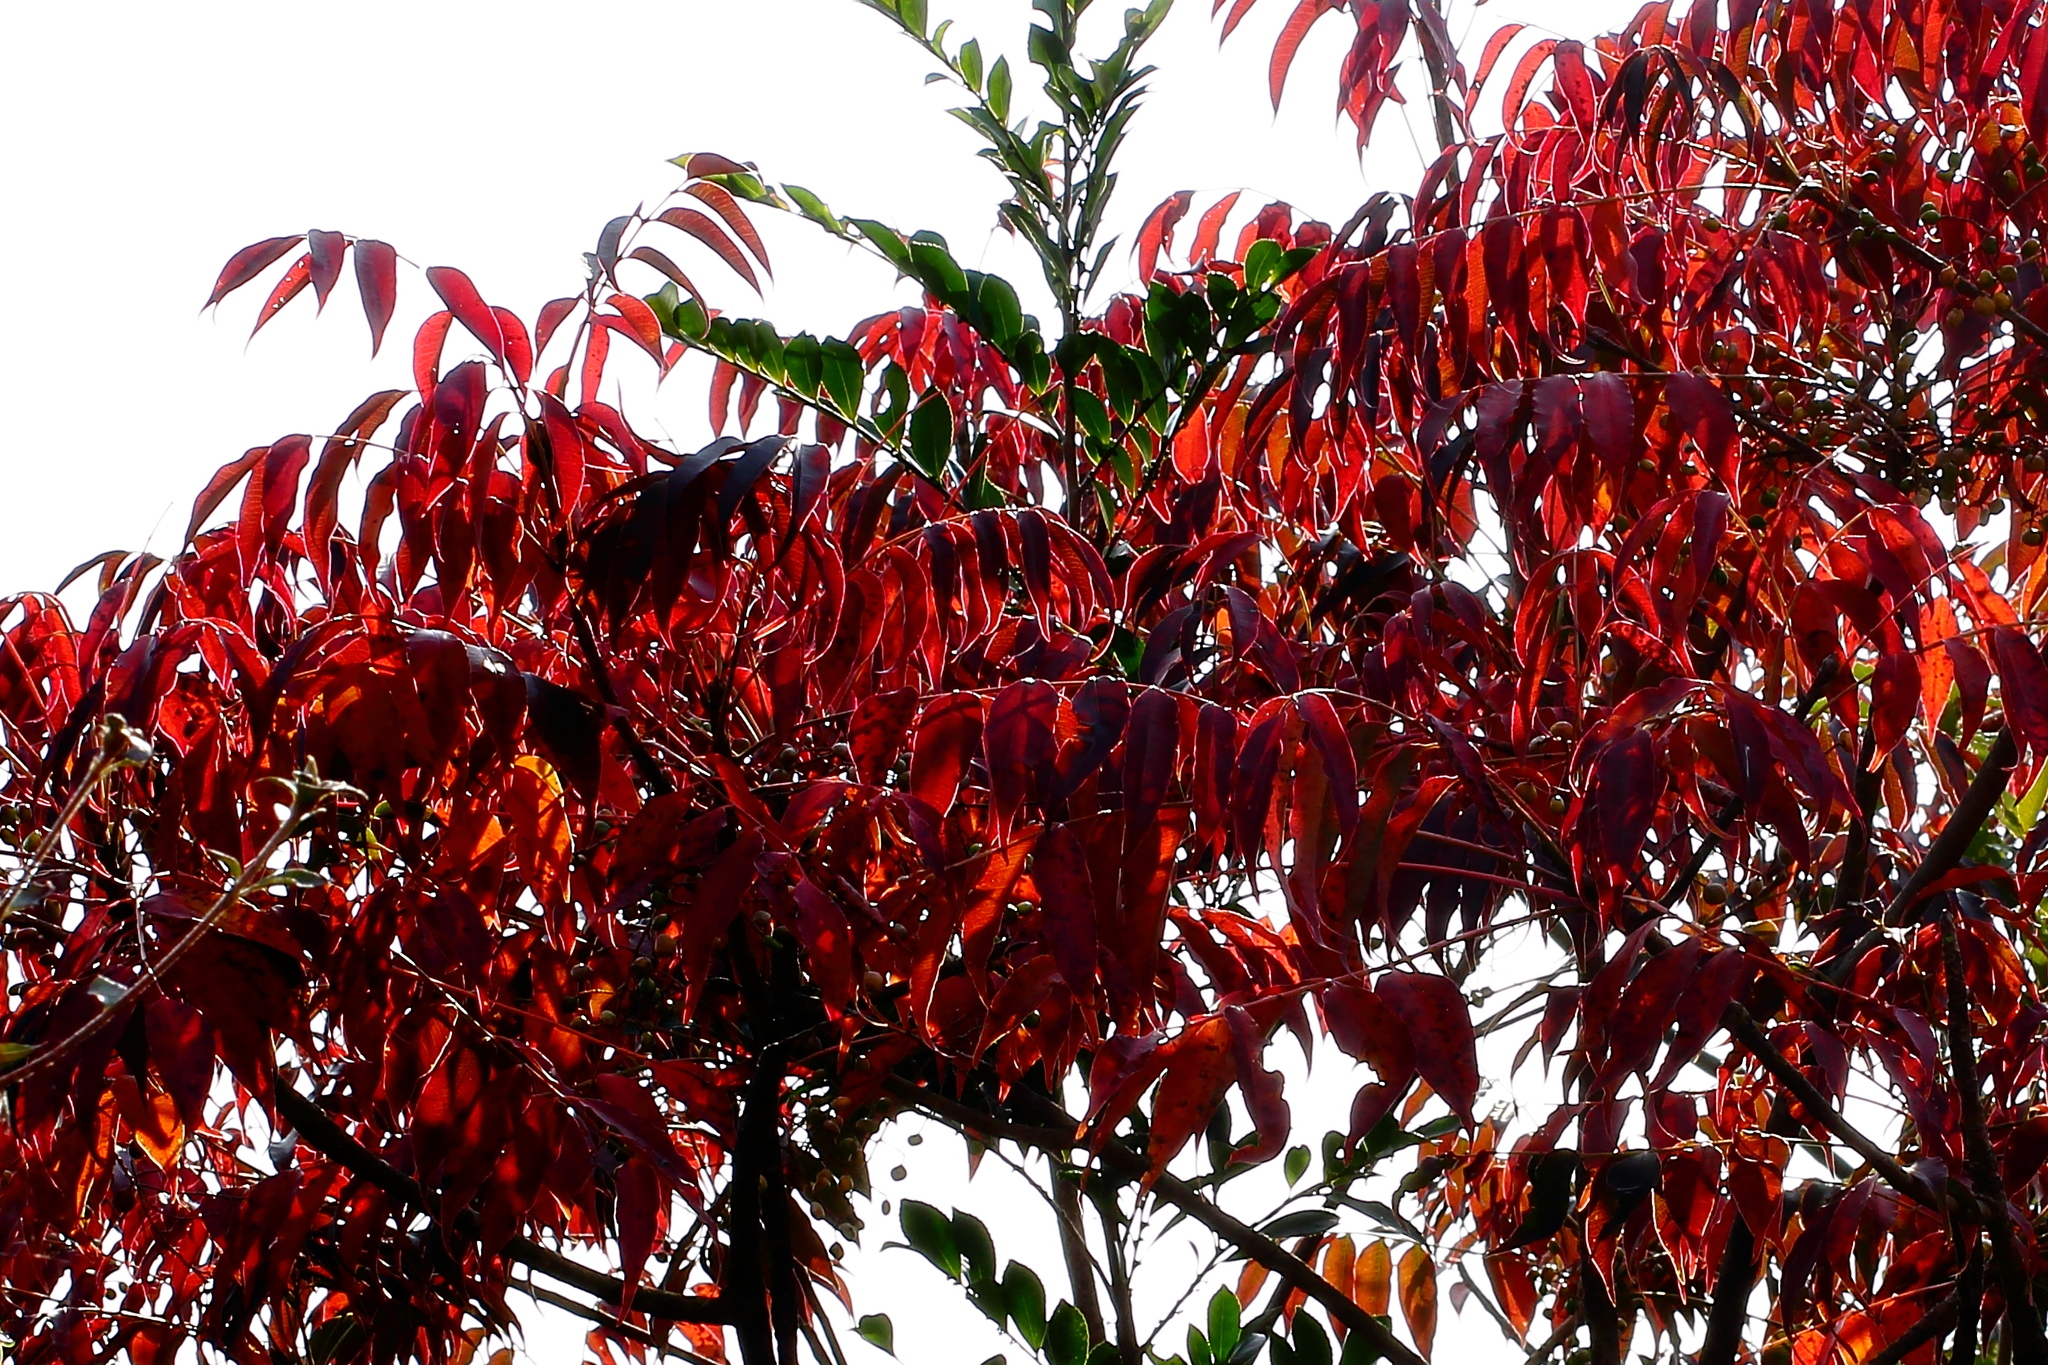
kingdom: Plantae
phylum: Tracheophyta
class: Magnoliopsida
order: Sapindales
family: Anacardiaceae
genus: Toxicodendron
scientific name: Toxicodendron succedaneum
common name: Wax tree
